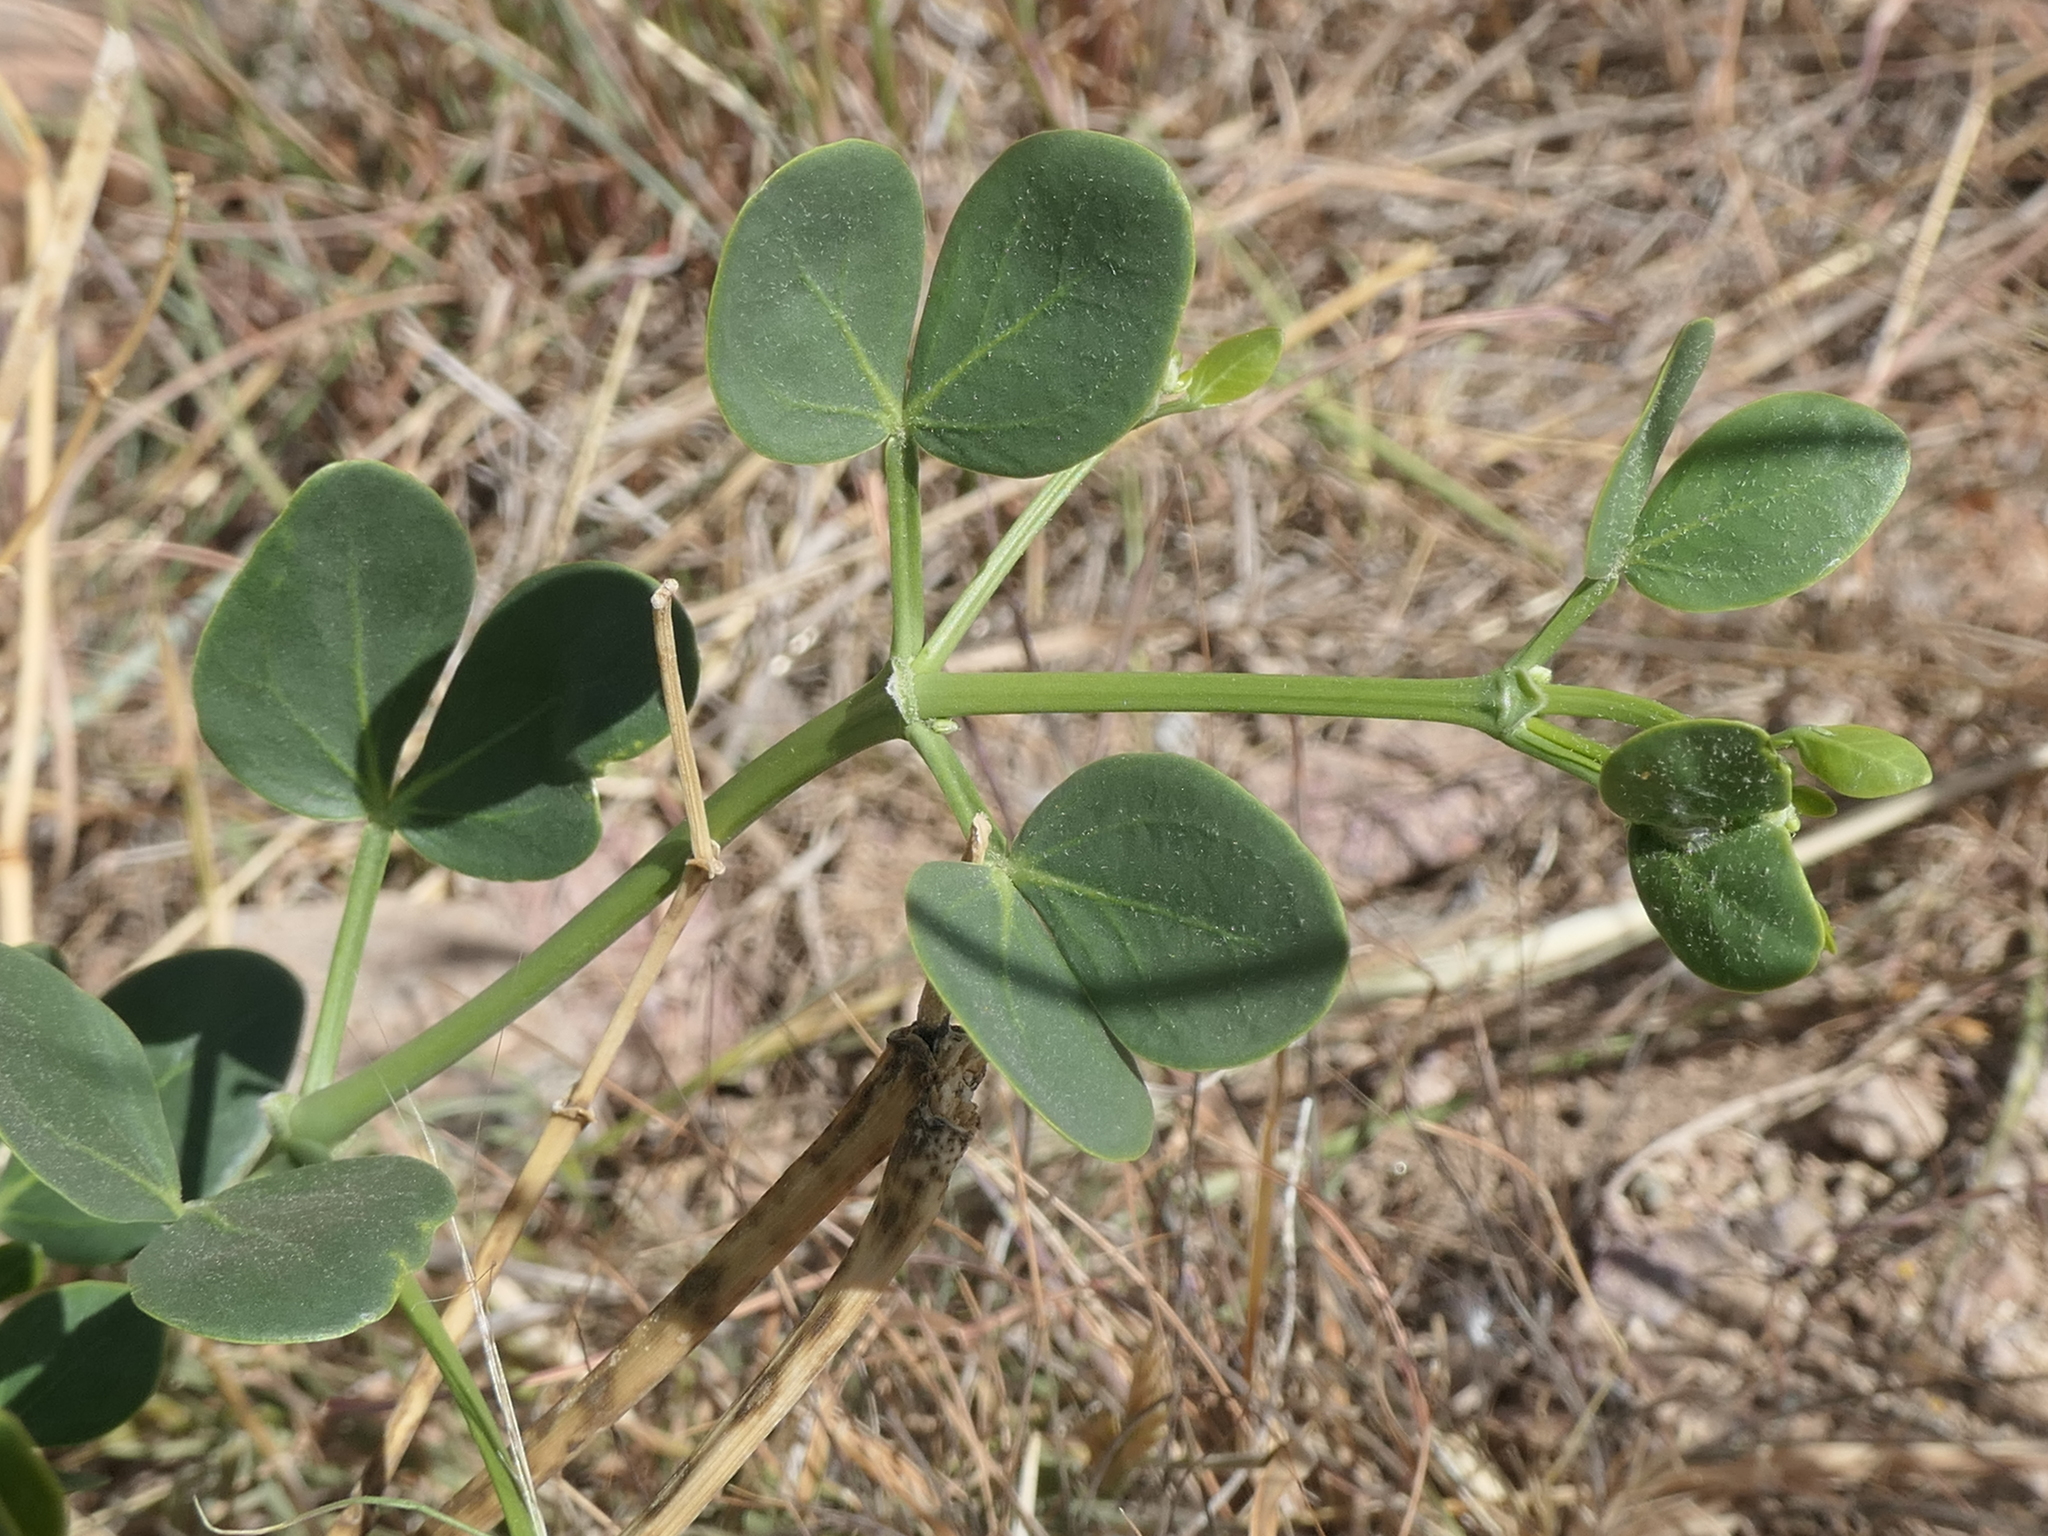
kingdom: Plantae
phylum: Tracheophyta
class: Magnoliopsida
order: Zygophyllales
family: Zygophyllaceae
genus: Zygophyllum
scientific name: Zygophyllum fabago
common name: Syrian beancaper
